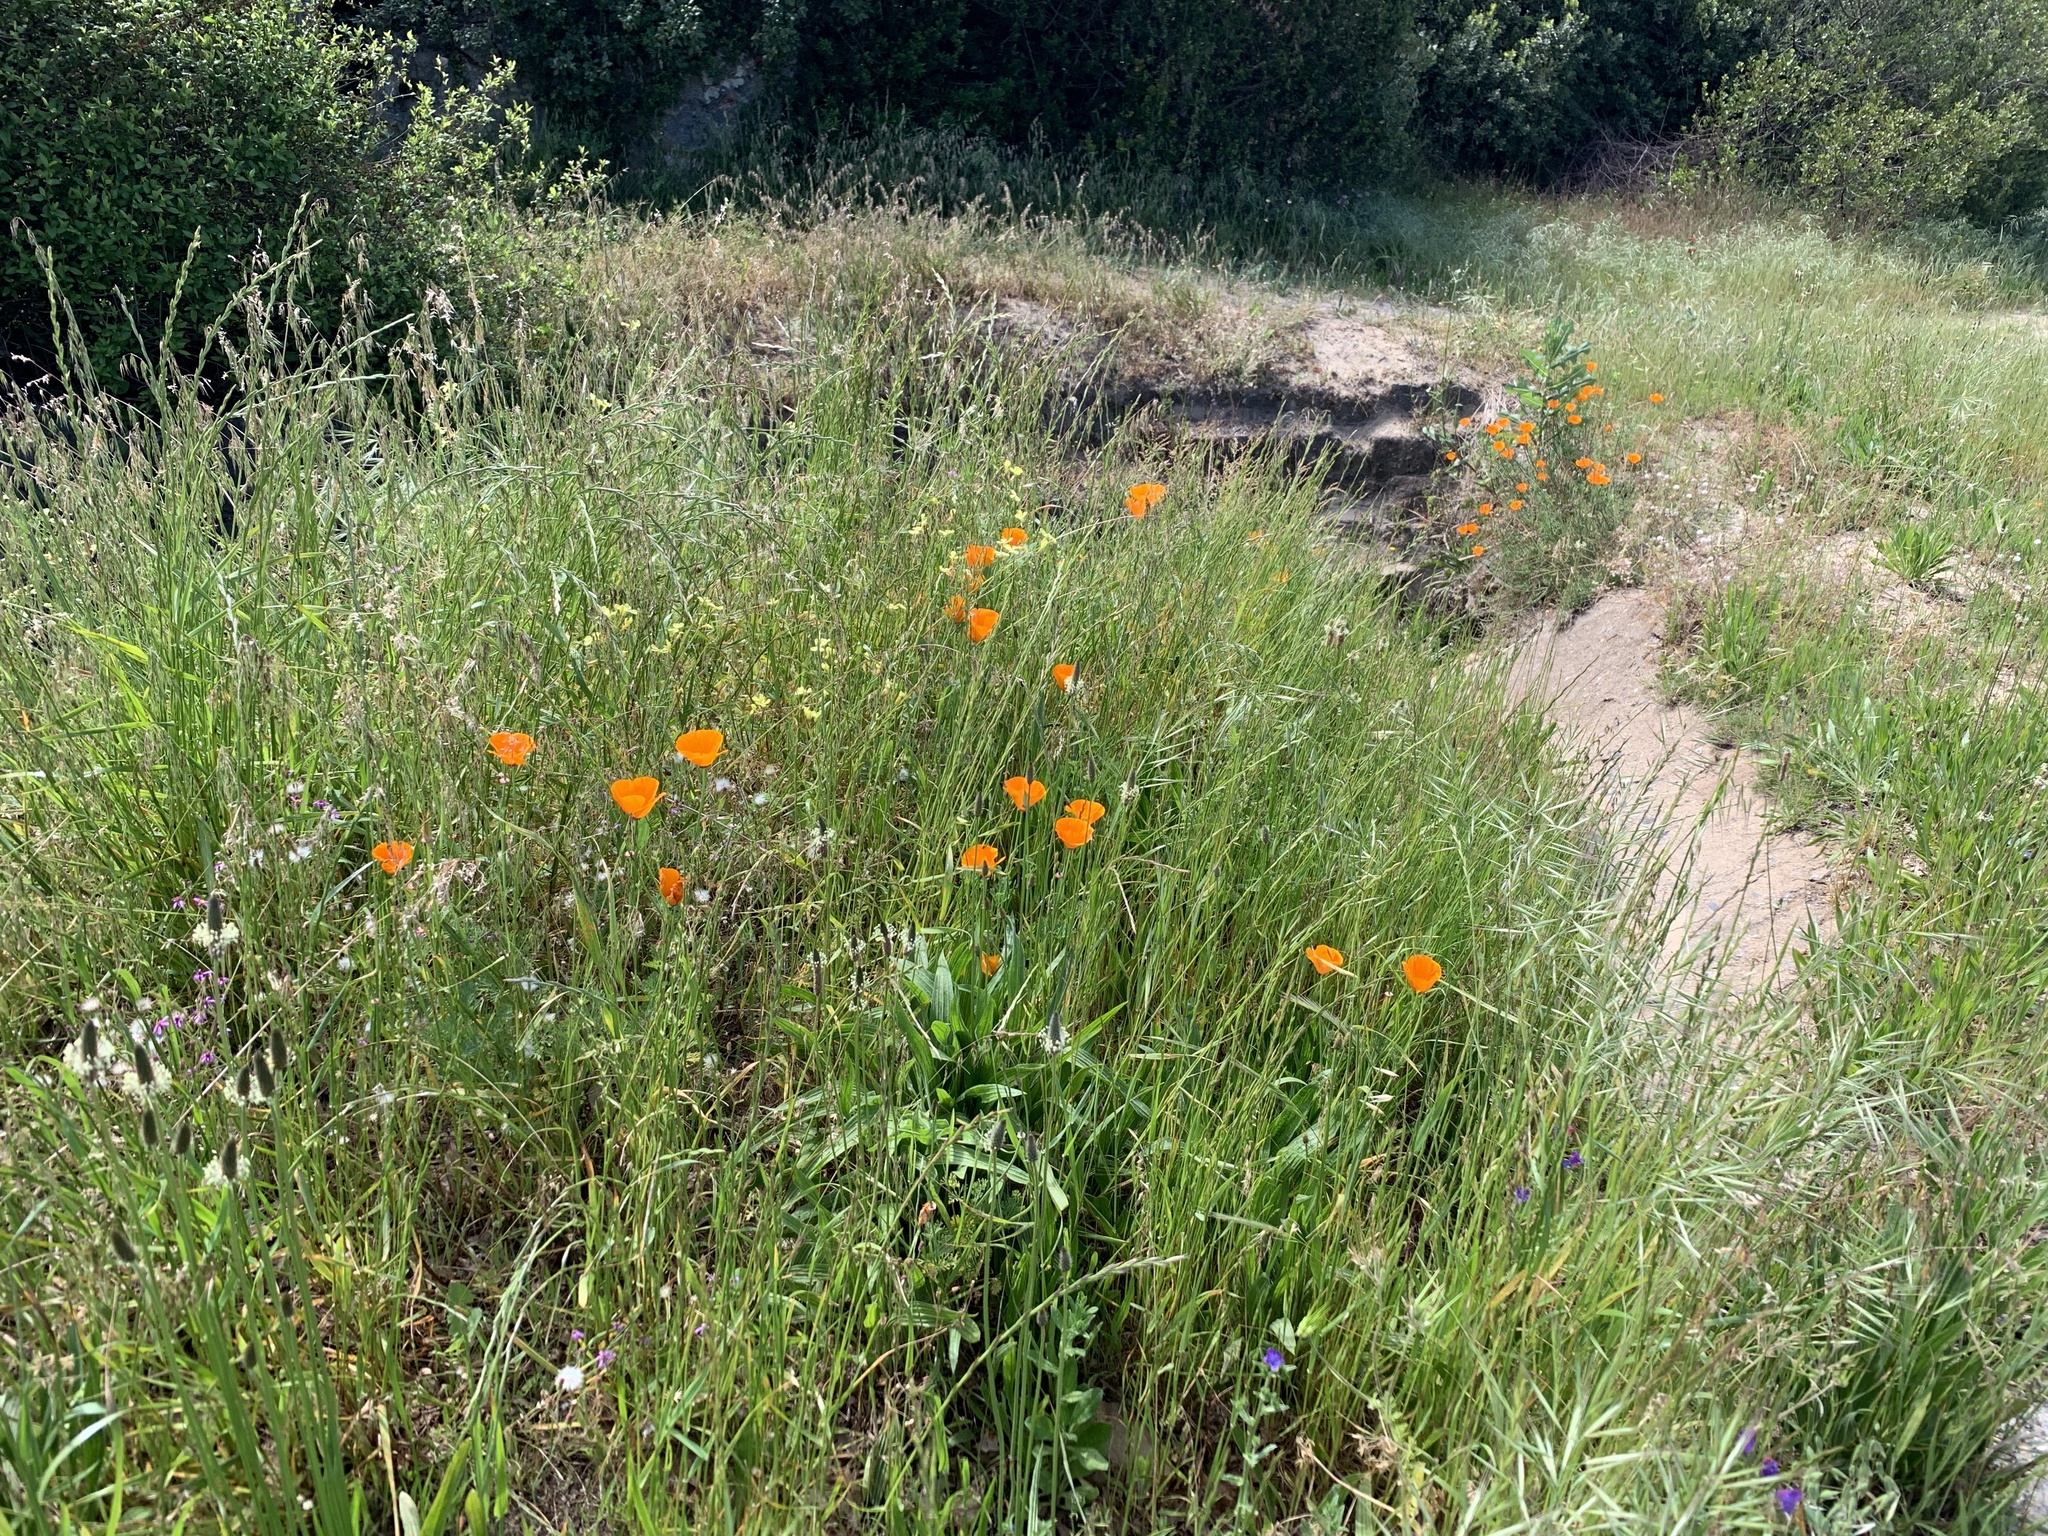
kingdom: Plantae
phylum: Tracheophyta
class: Magnoliopsida
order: Ranunculales
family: Papaveraceae
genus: Eschscholzia
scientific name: Eschscholzia californica
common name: California poppy
